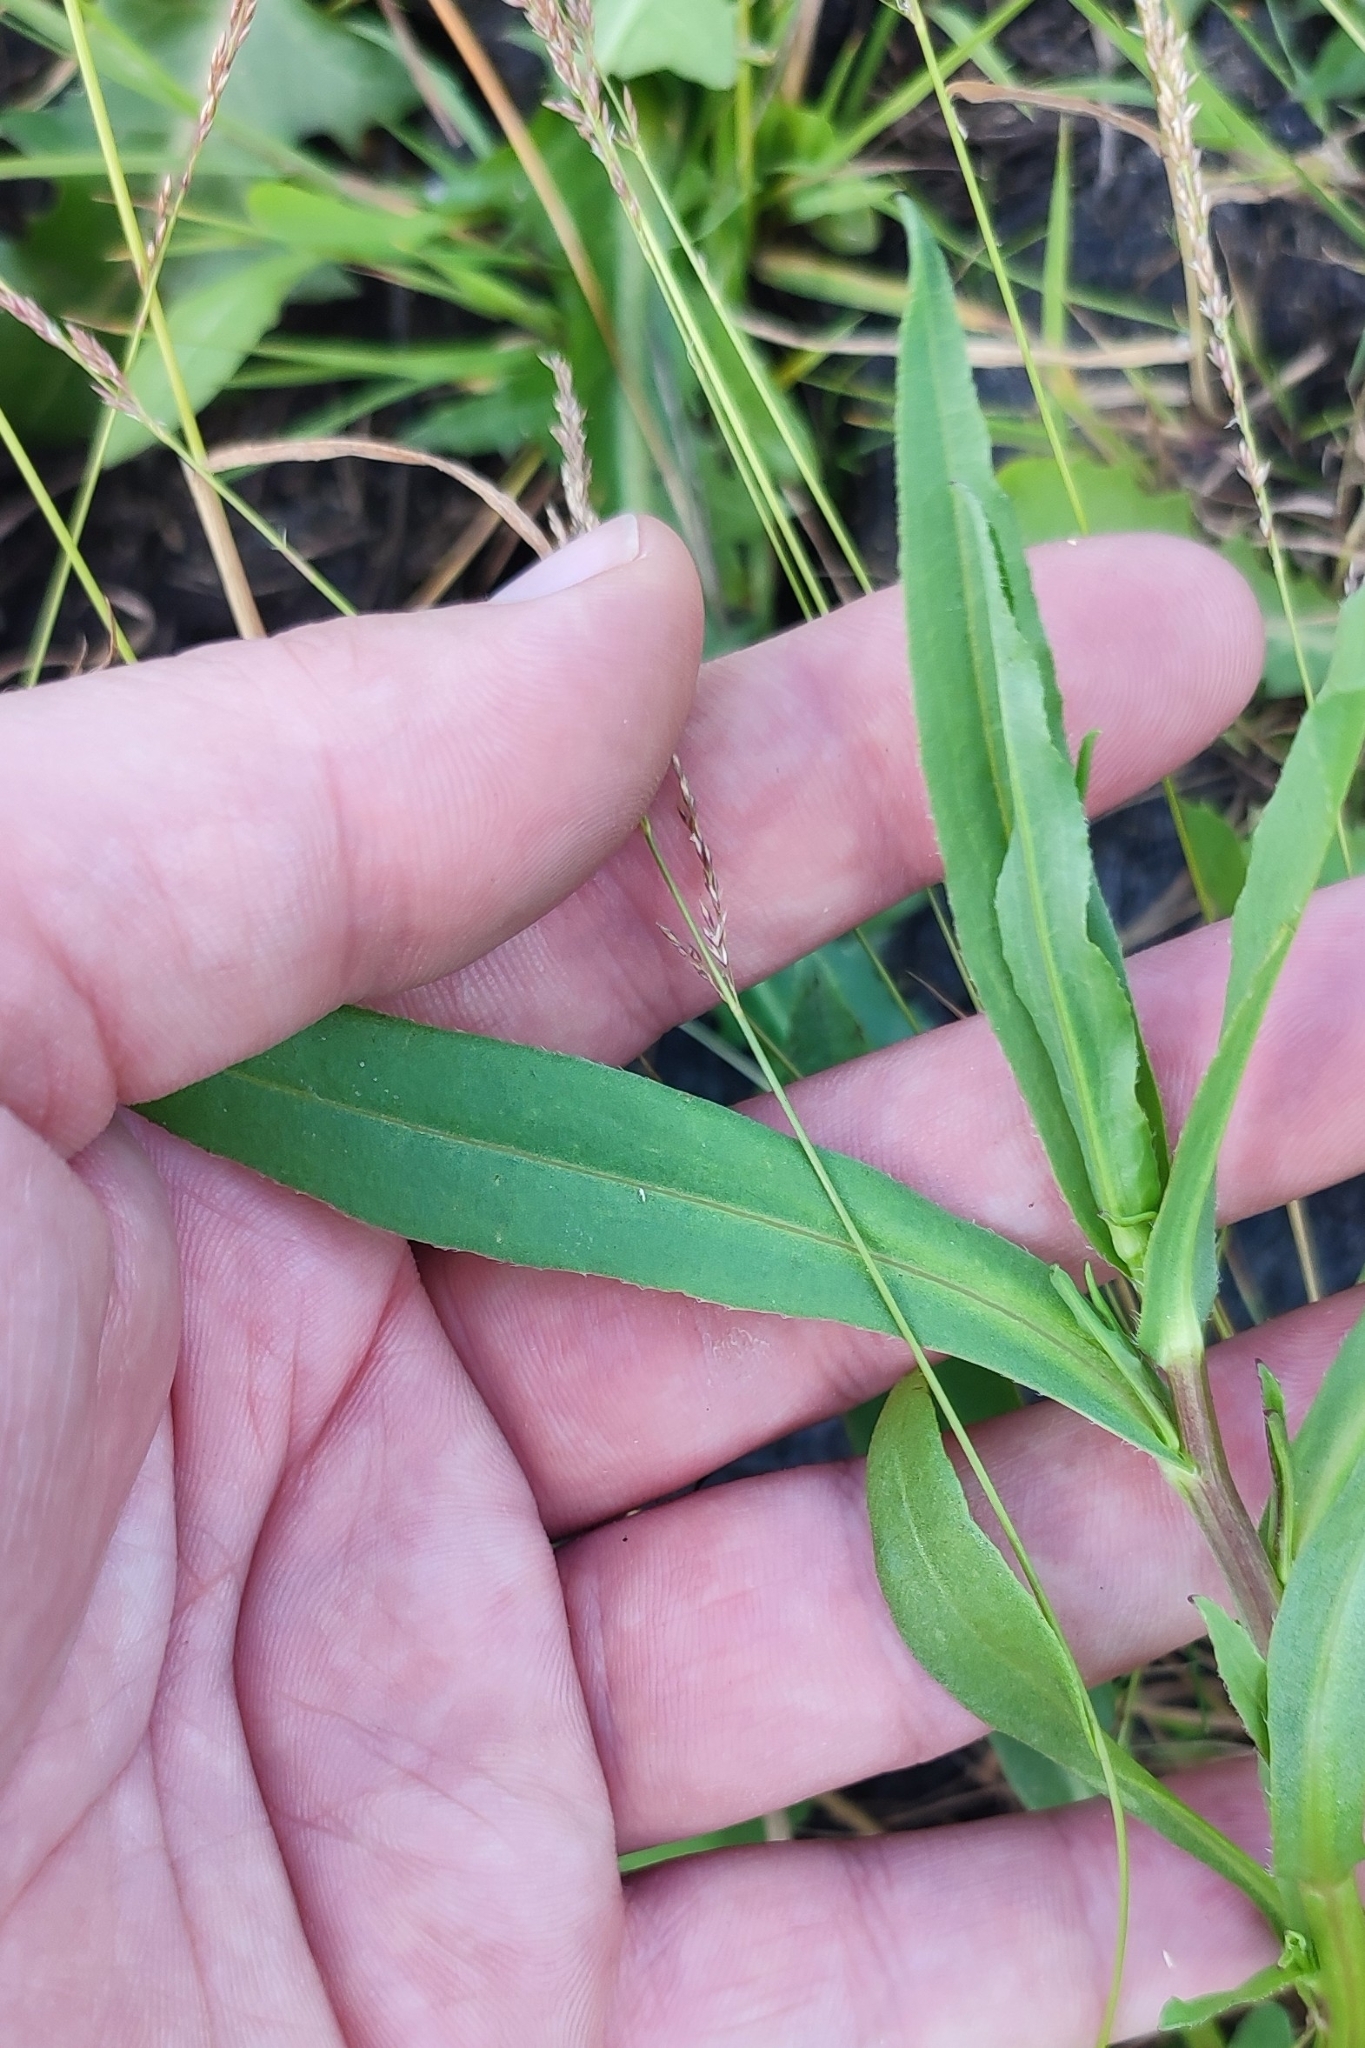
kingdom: Plantae
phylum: Tracheophyta
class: Magnoliopsida
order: Asterales
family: Asteraceae
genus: Tripolium
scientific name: Tripolium pannonicum
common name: Sea aster
